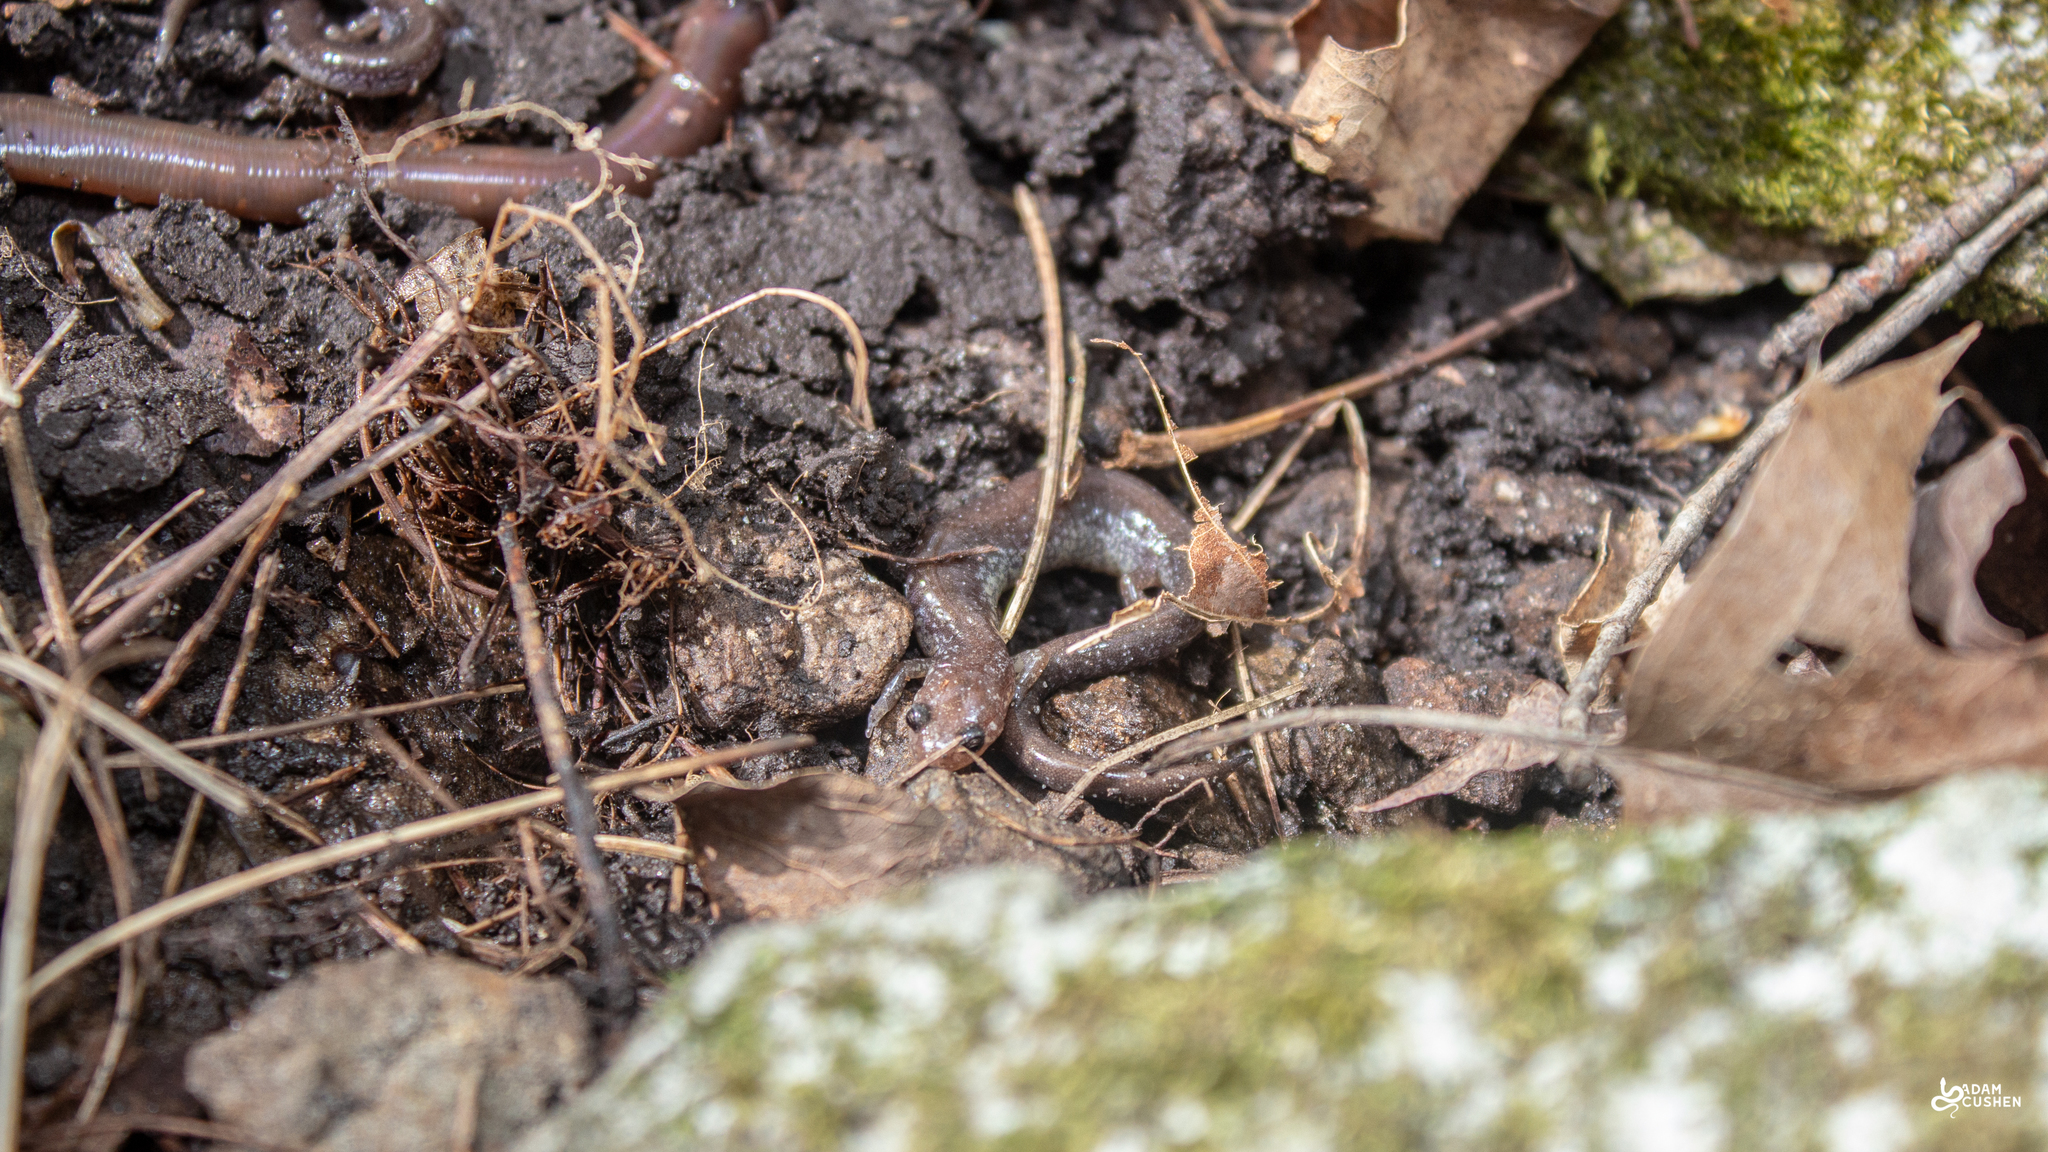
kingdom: Animalia
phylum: Chordata
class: Amphibia
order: Caudata
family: Plethodontidae
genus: Plethodon
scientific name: Plethodon cinereus
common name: Redback salamander
